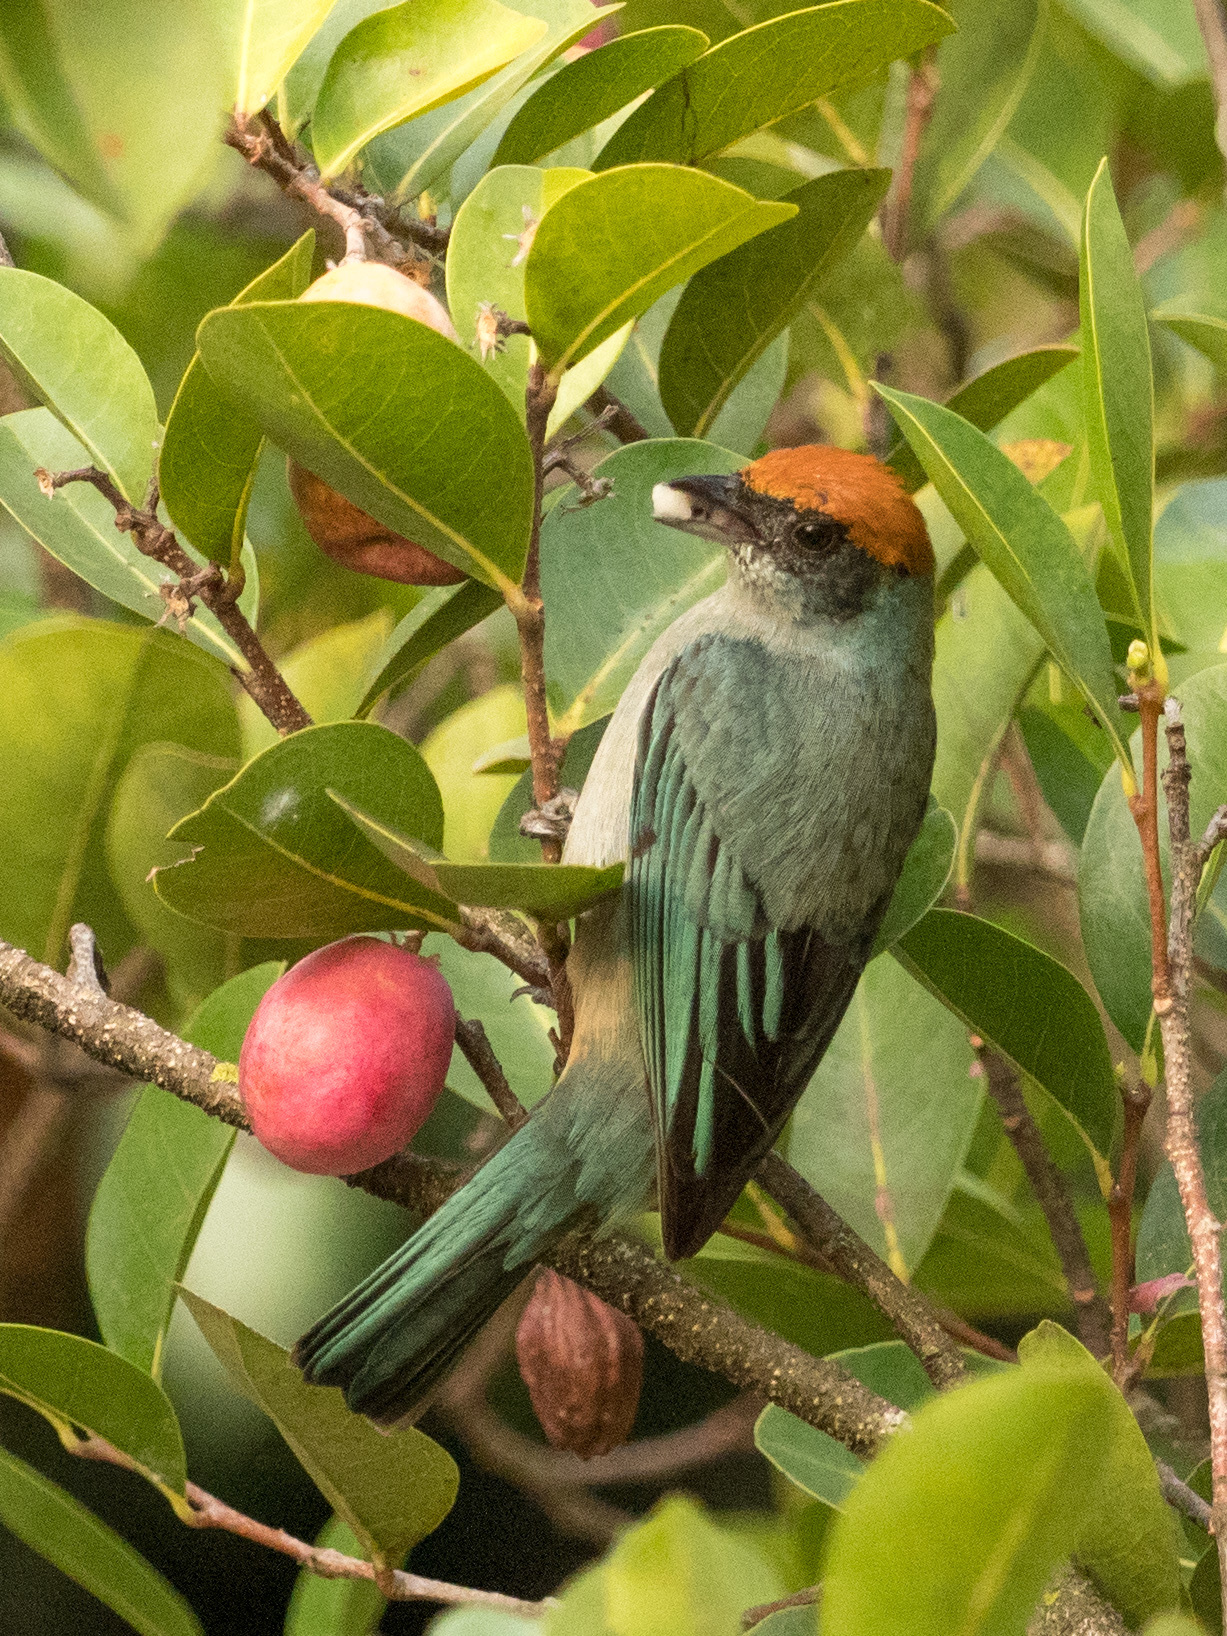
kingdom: Animalia
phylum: Chordata
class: Aves
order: Passeriformes
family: Thraupidae
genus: Stilpnia
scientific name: Stilpnia vitriolina
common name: Scrub tanager
